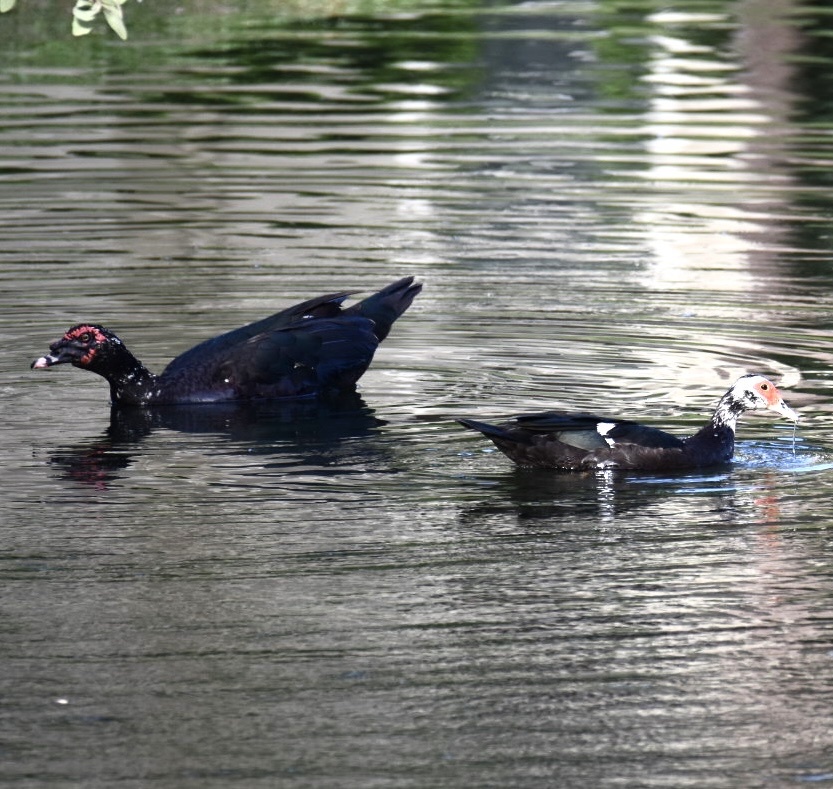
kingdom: Animalia
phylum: Chordata
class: Aves
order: Anseriformes
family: Anatidae
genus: Cairina
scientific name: Cairina moschata
